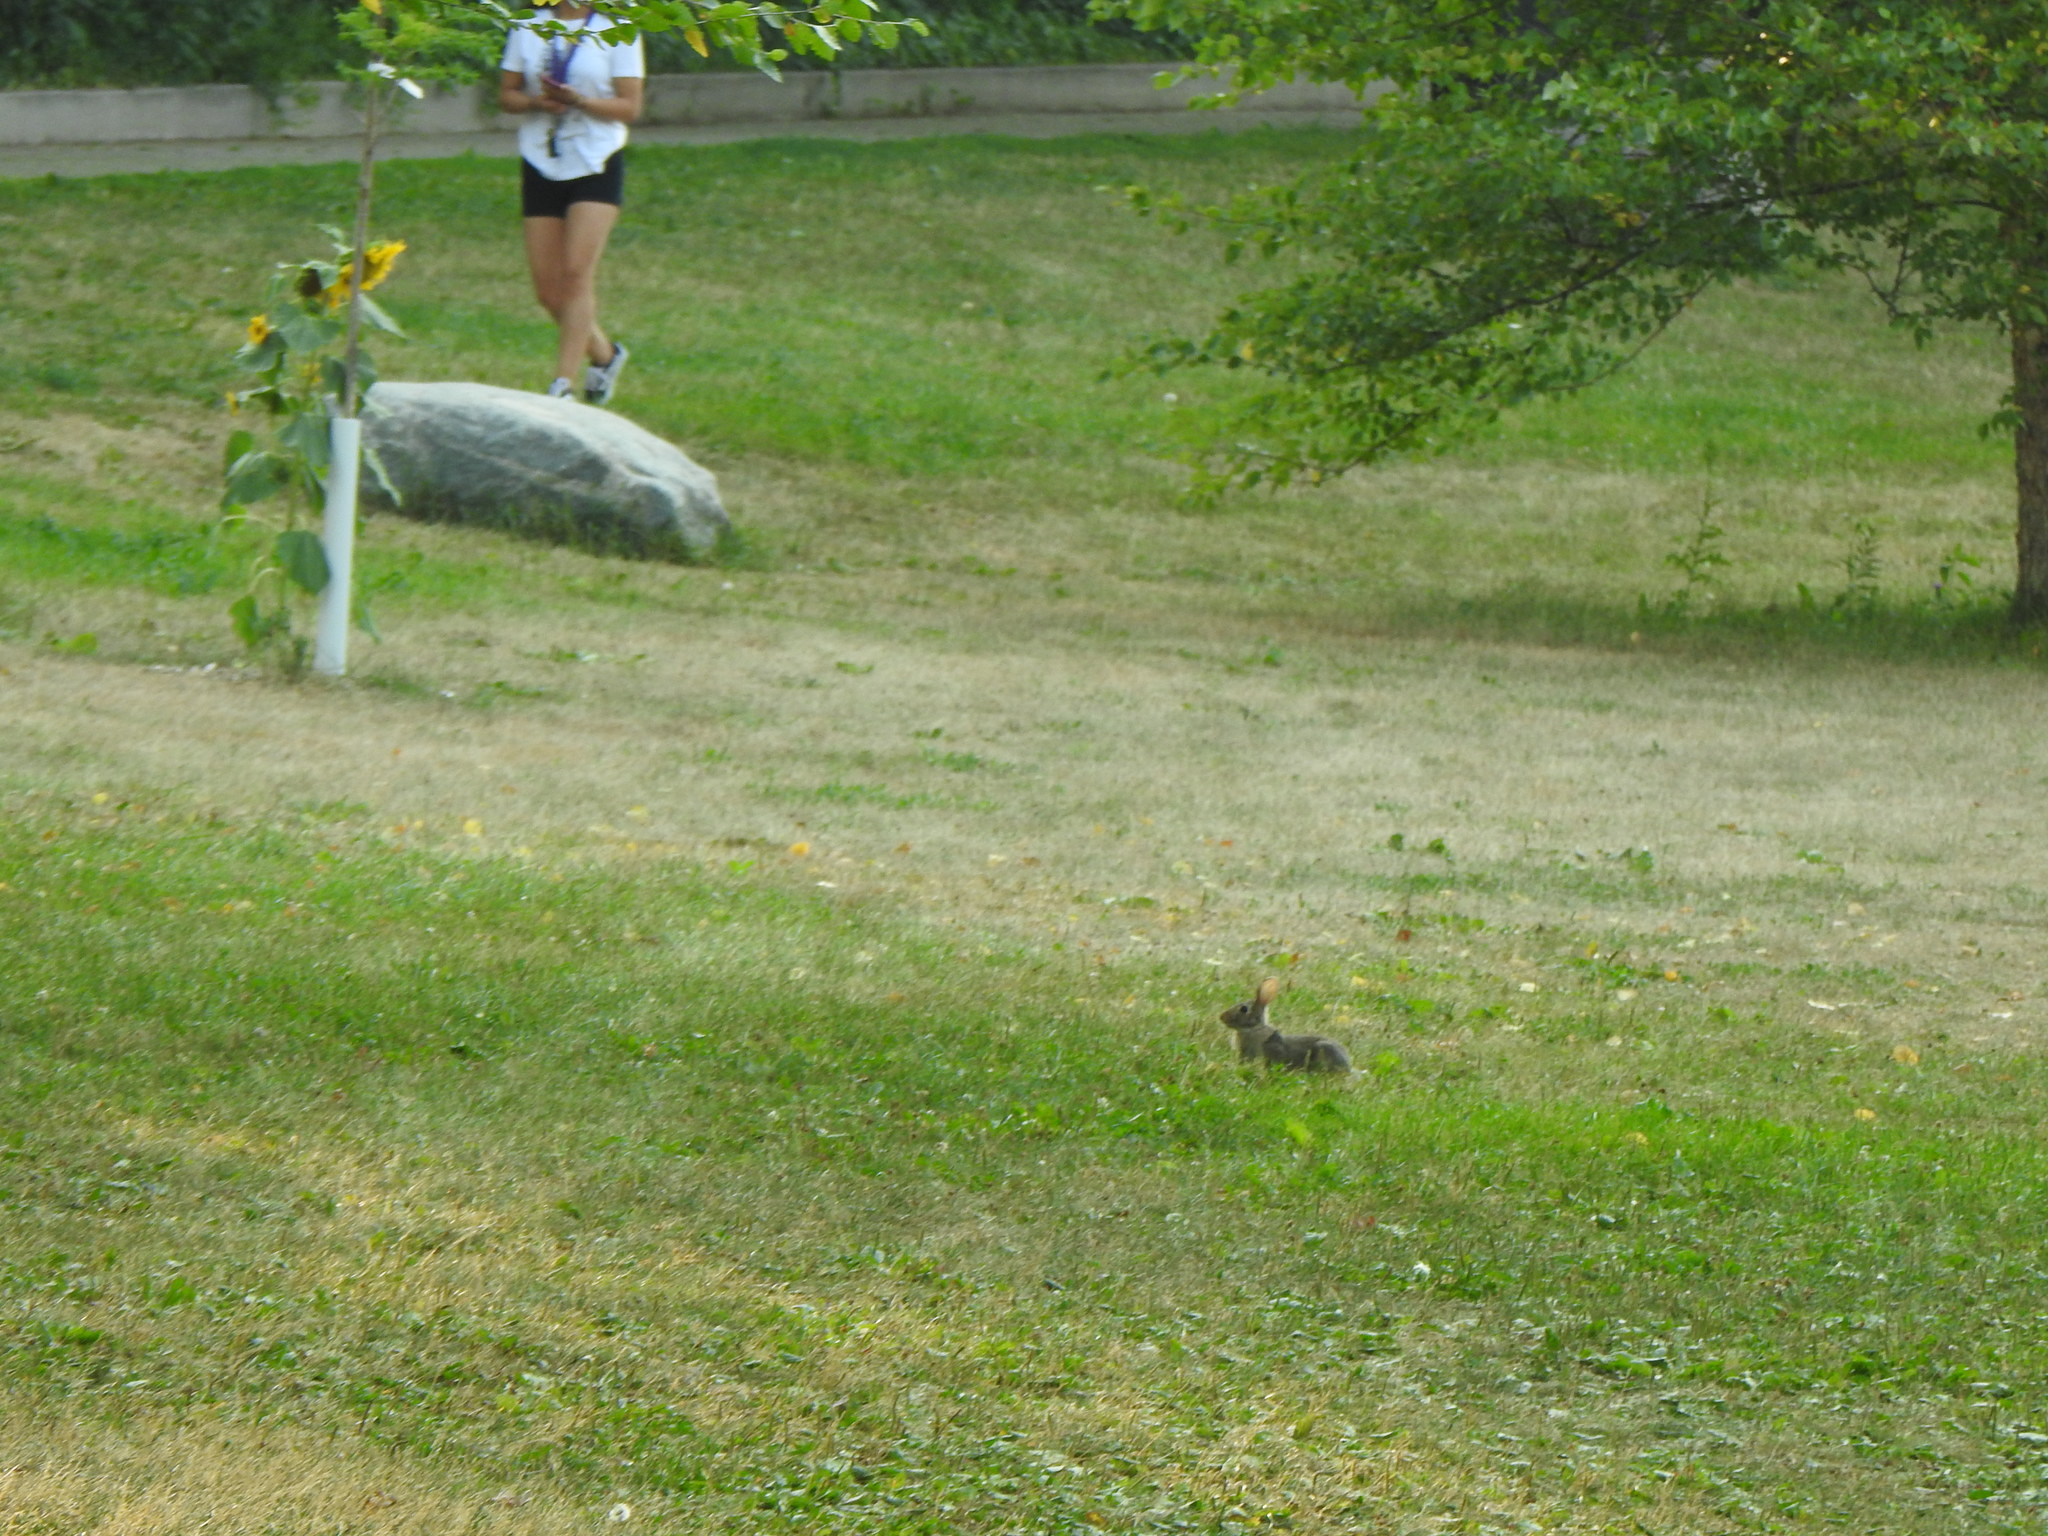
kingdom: Animalia
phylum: Chordata
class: Mammalia
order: Lagomorpha
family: Leporidae
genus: Sylvilagus
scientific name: Sylvilagus floridanus
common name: Eastern cottontail
